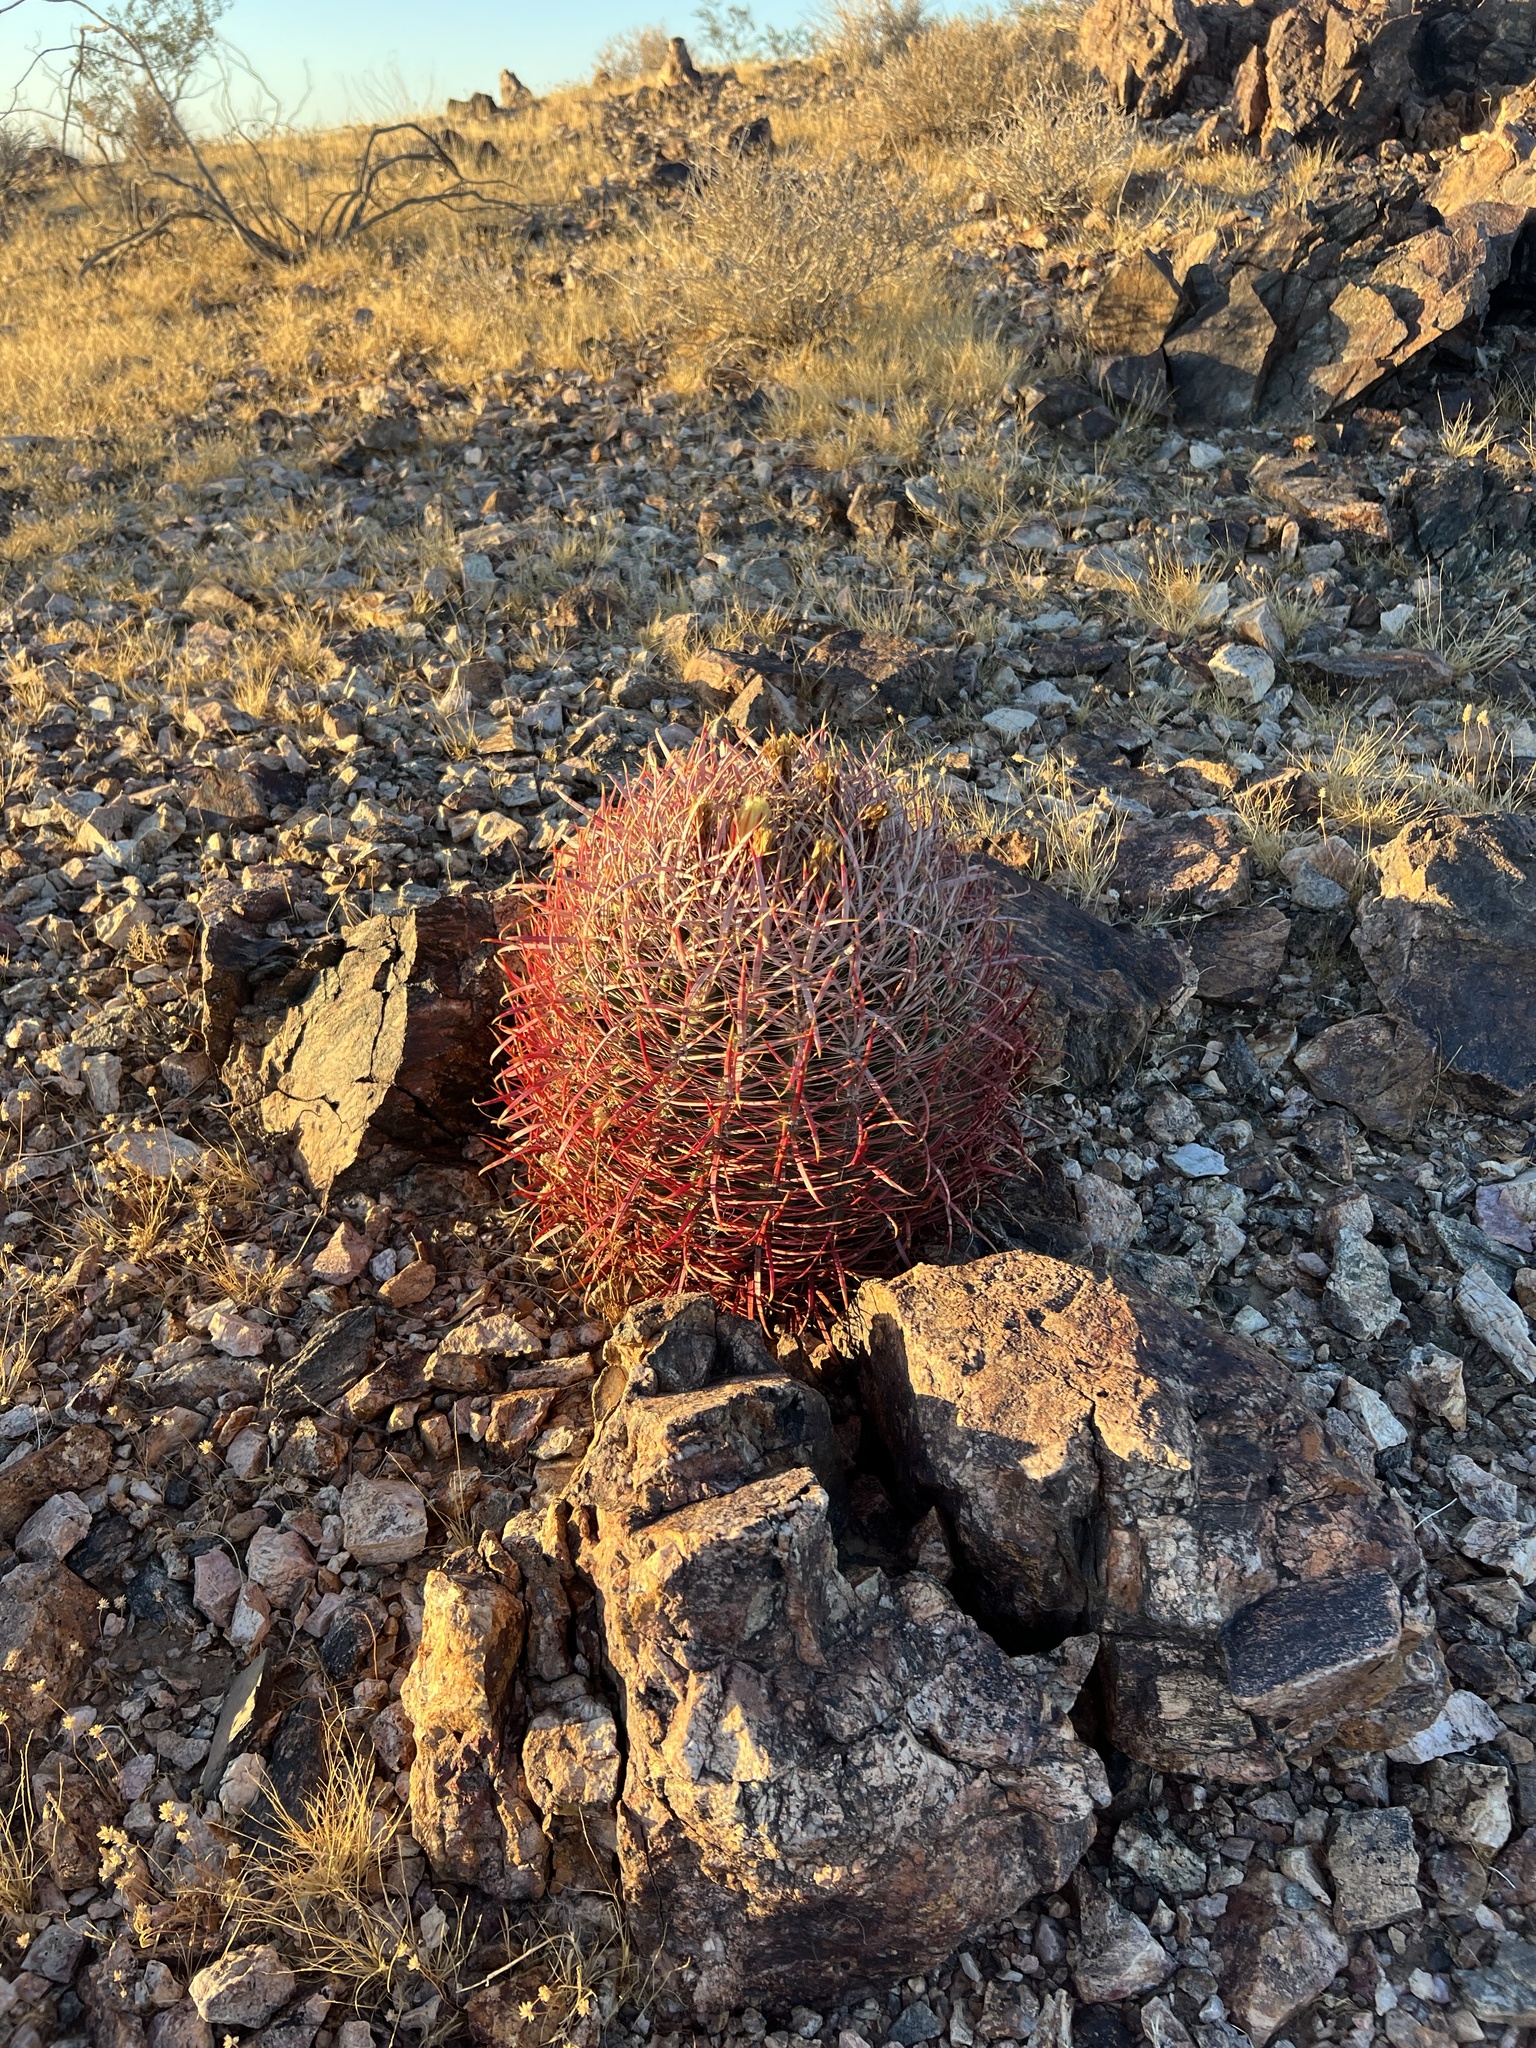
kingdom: Plantae
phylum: Tracheophyta
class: Magnoliopsida
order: Caryophyllales
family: Cactaceae
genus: Ferocactus
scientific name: Ferocactus cylindraceus
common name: California barrel cactus
